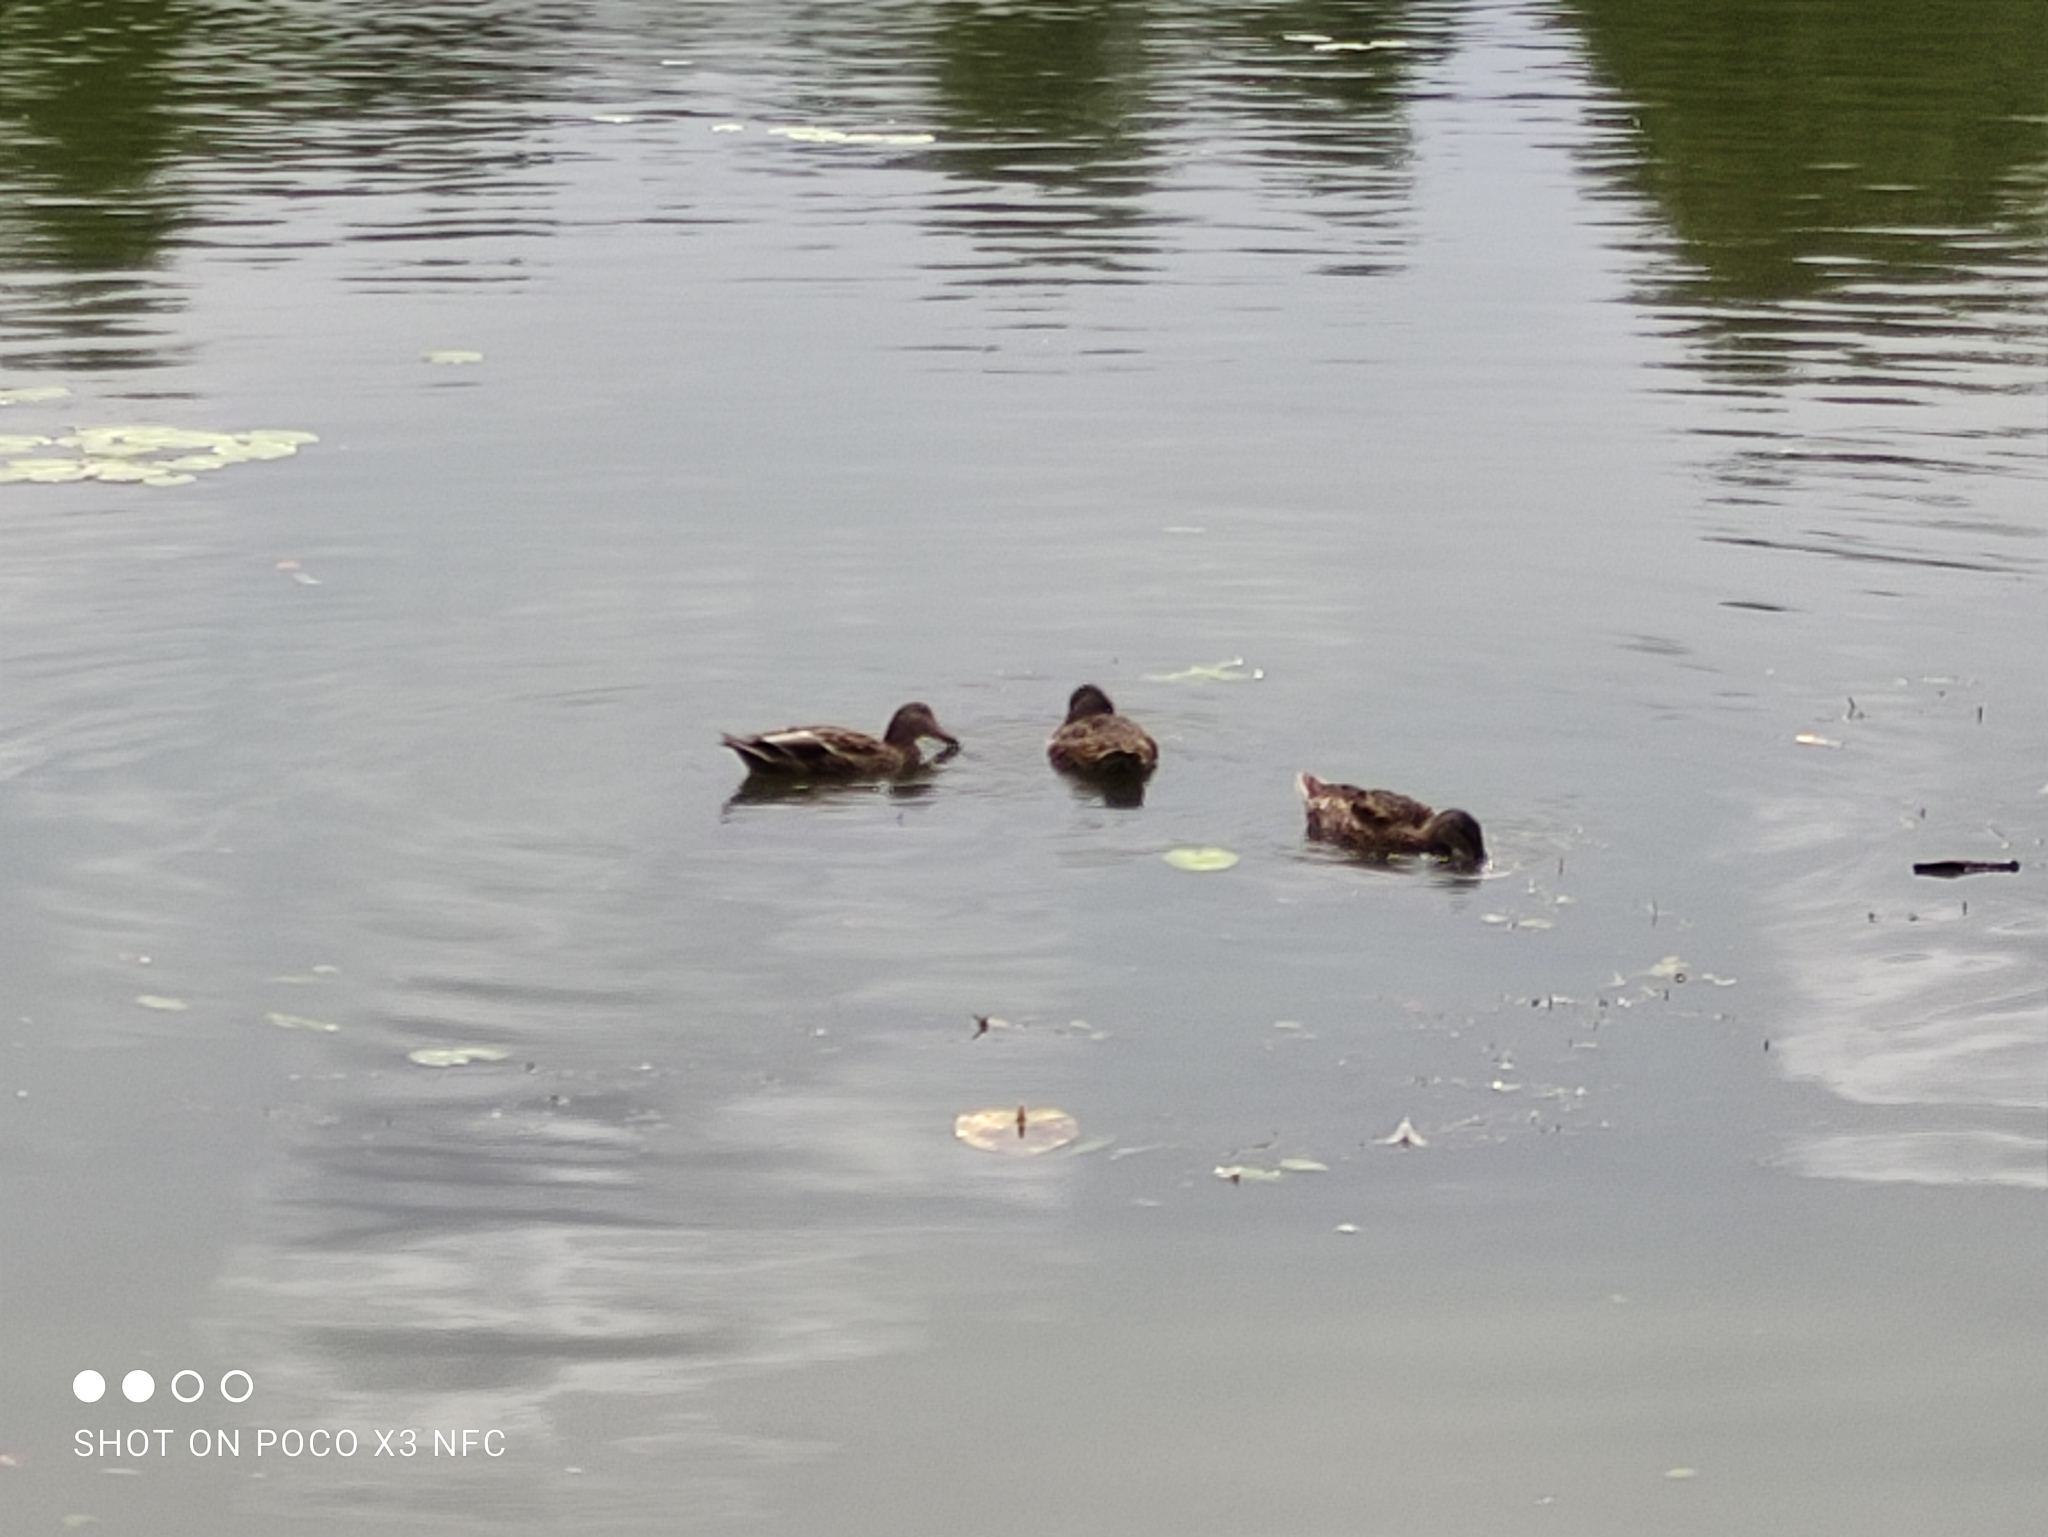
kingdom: Animalia
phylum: Chordata
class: Aves
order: Anseriformes
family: Anatidae
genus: Anas
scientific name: Anas platyrhynchos
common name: Mallard
